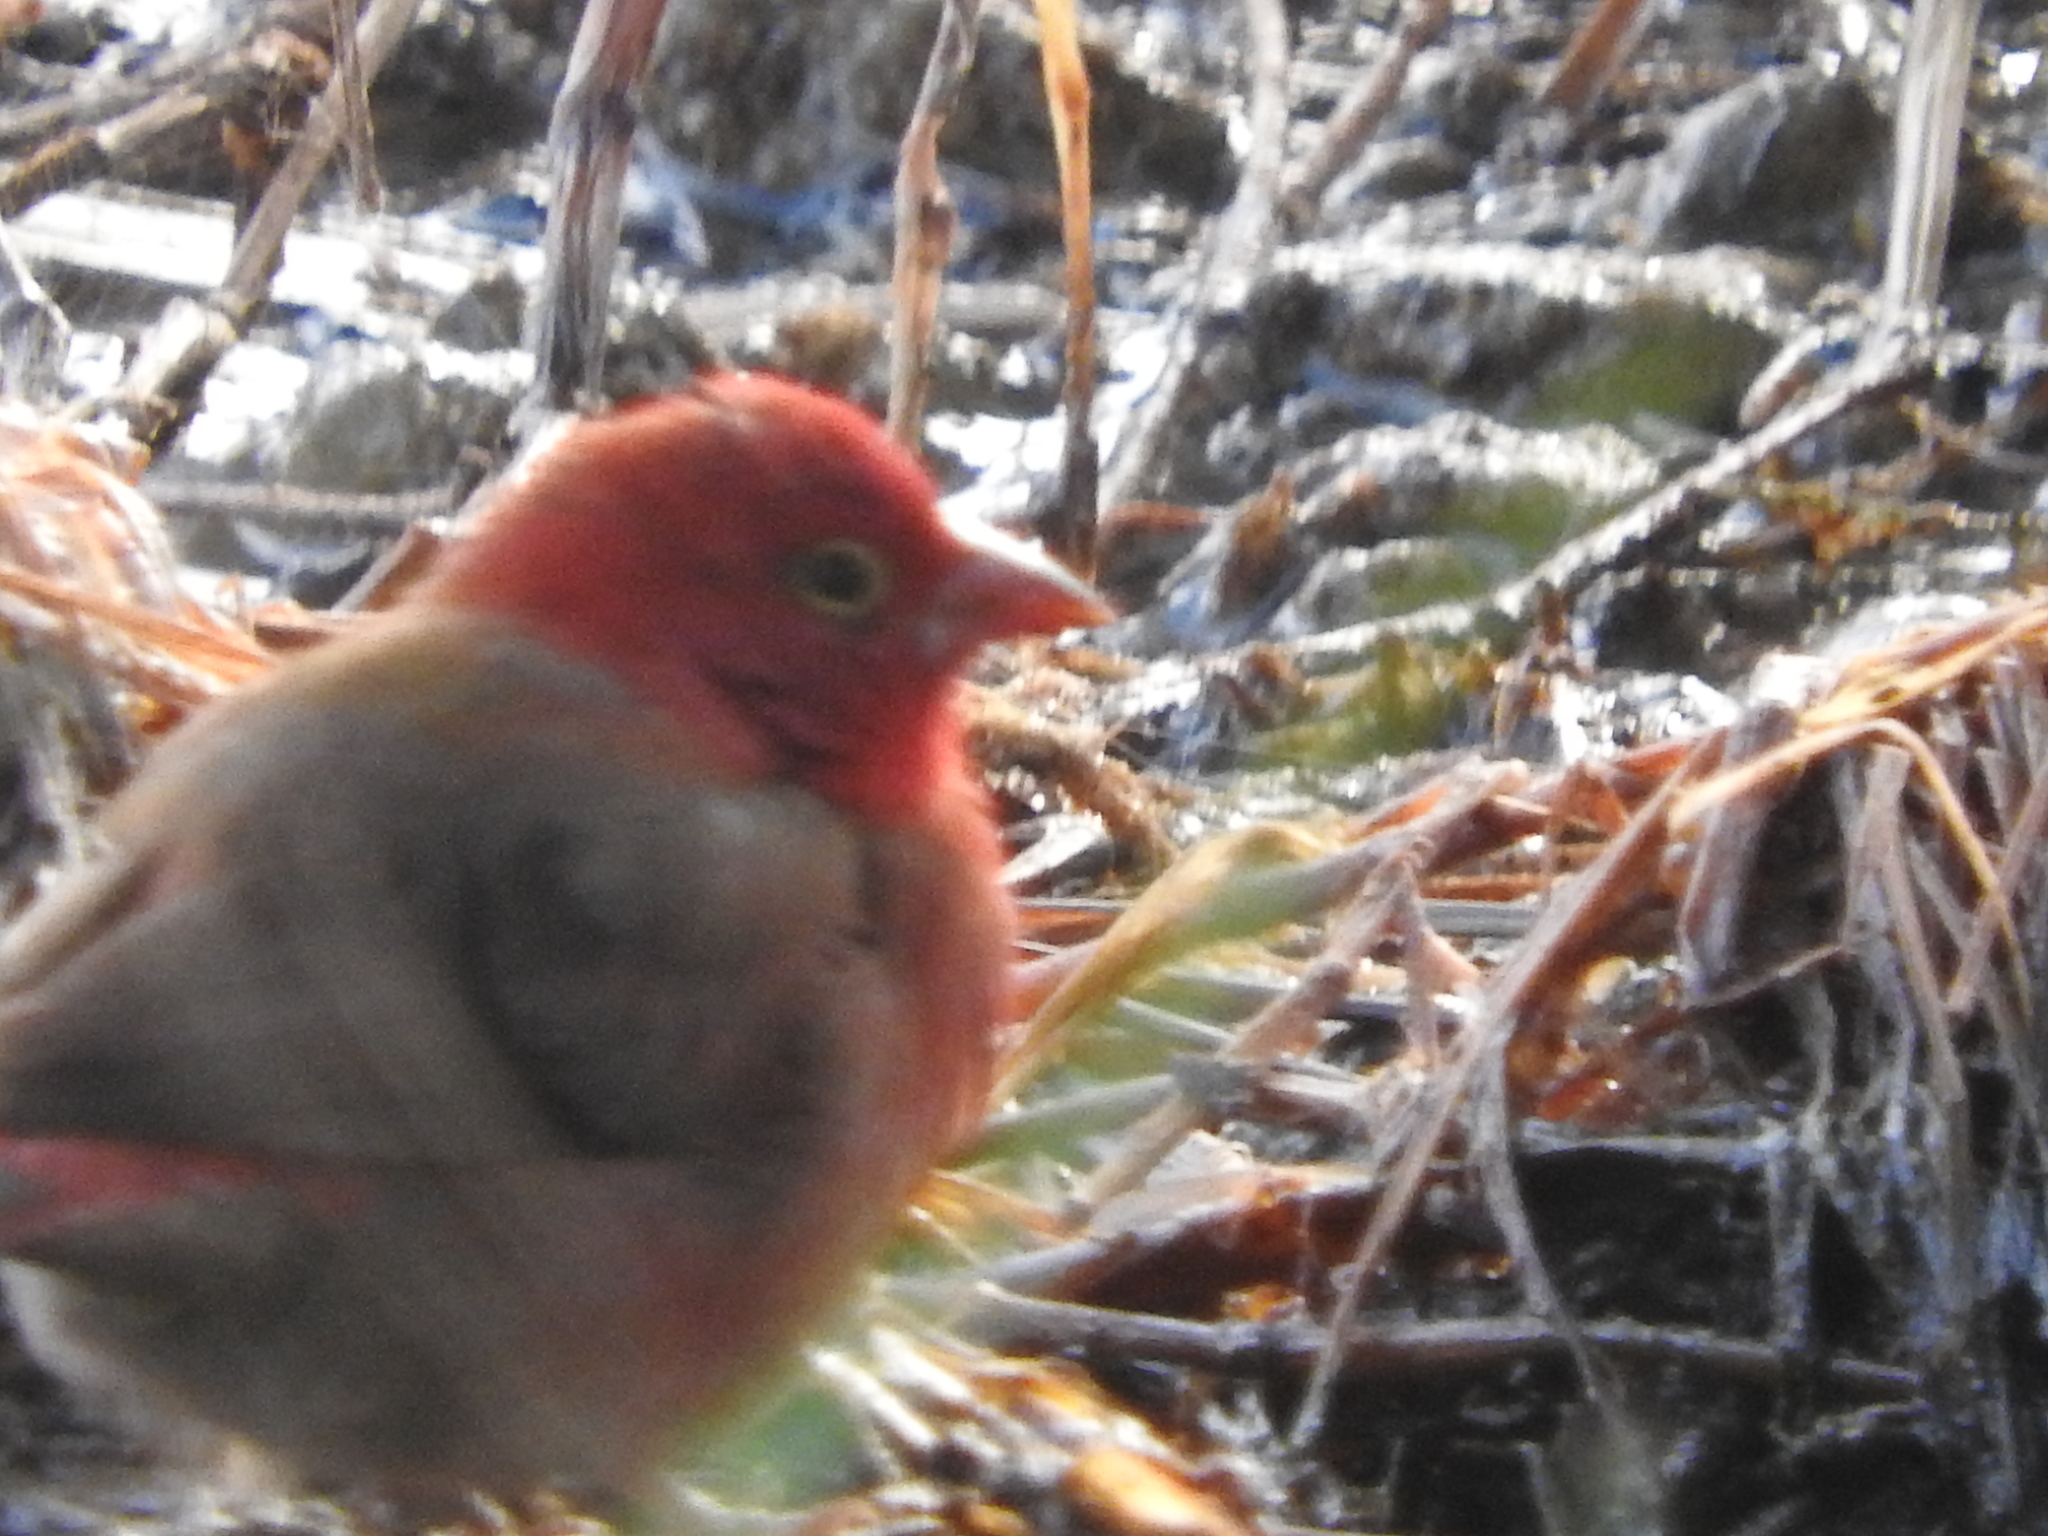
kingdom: Animalia
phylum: Chordata
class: Aves
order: Passeriformes
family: Estrildidae
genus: Lagonosticta
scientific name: Lagonosticta senegala
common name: Red-billed firefinch
